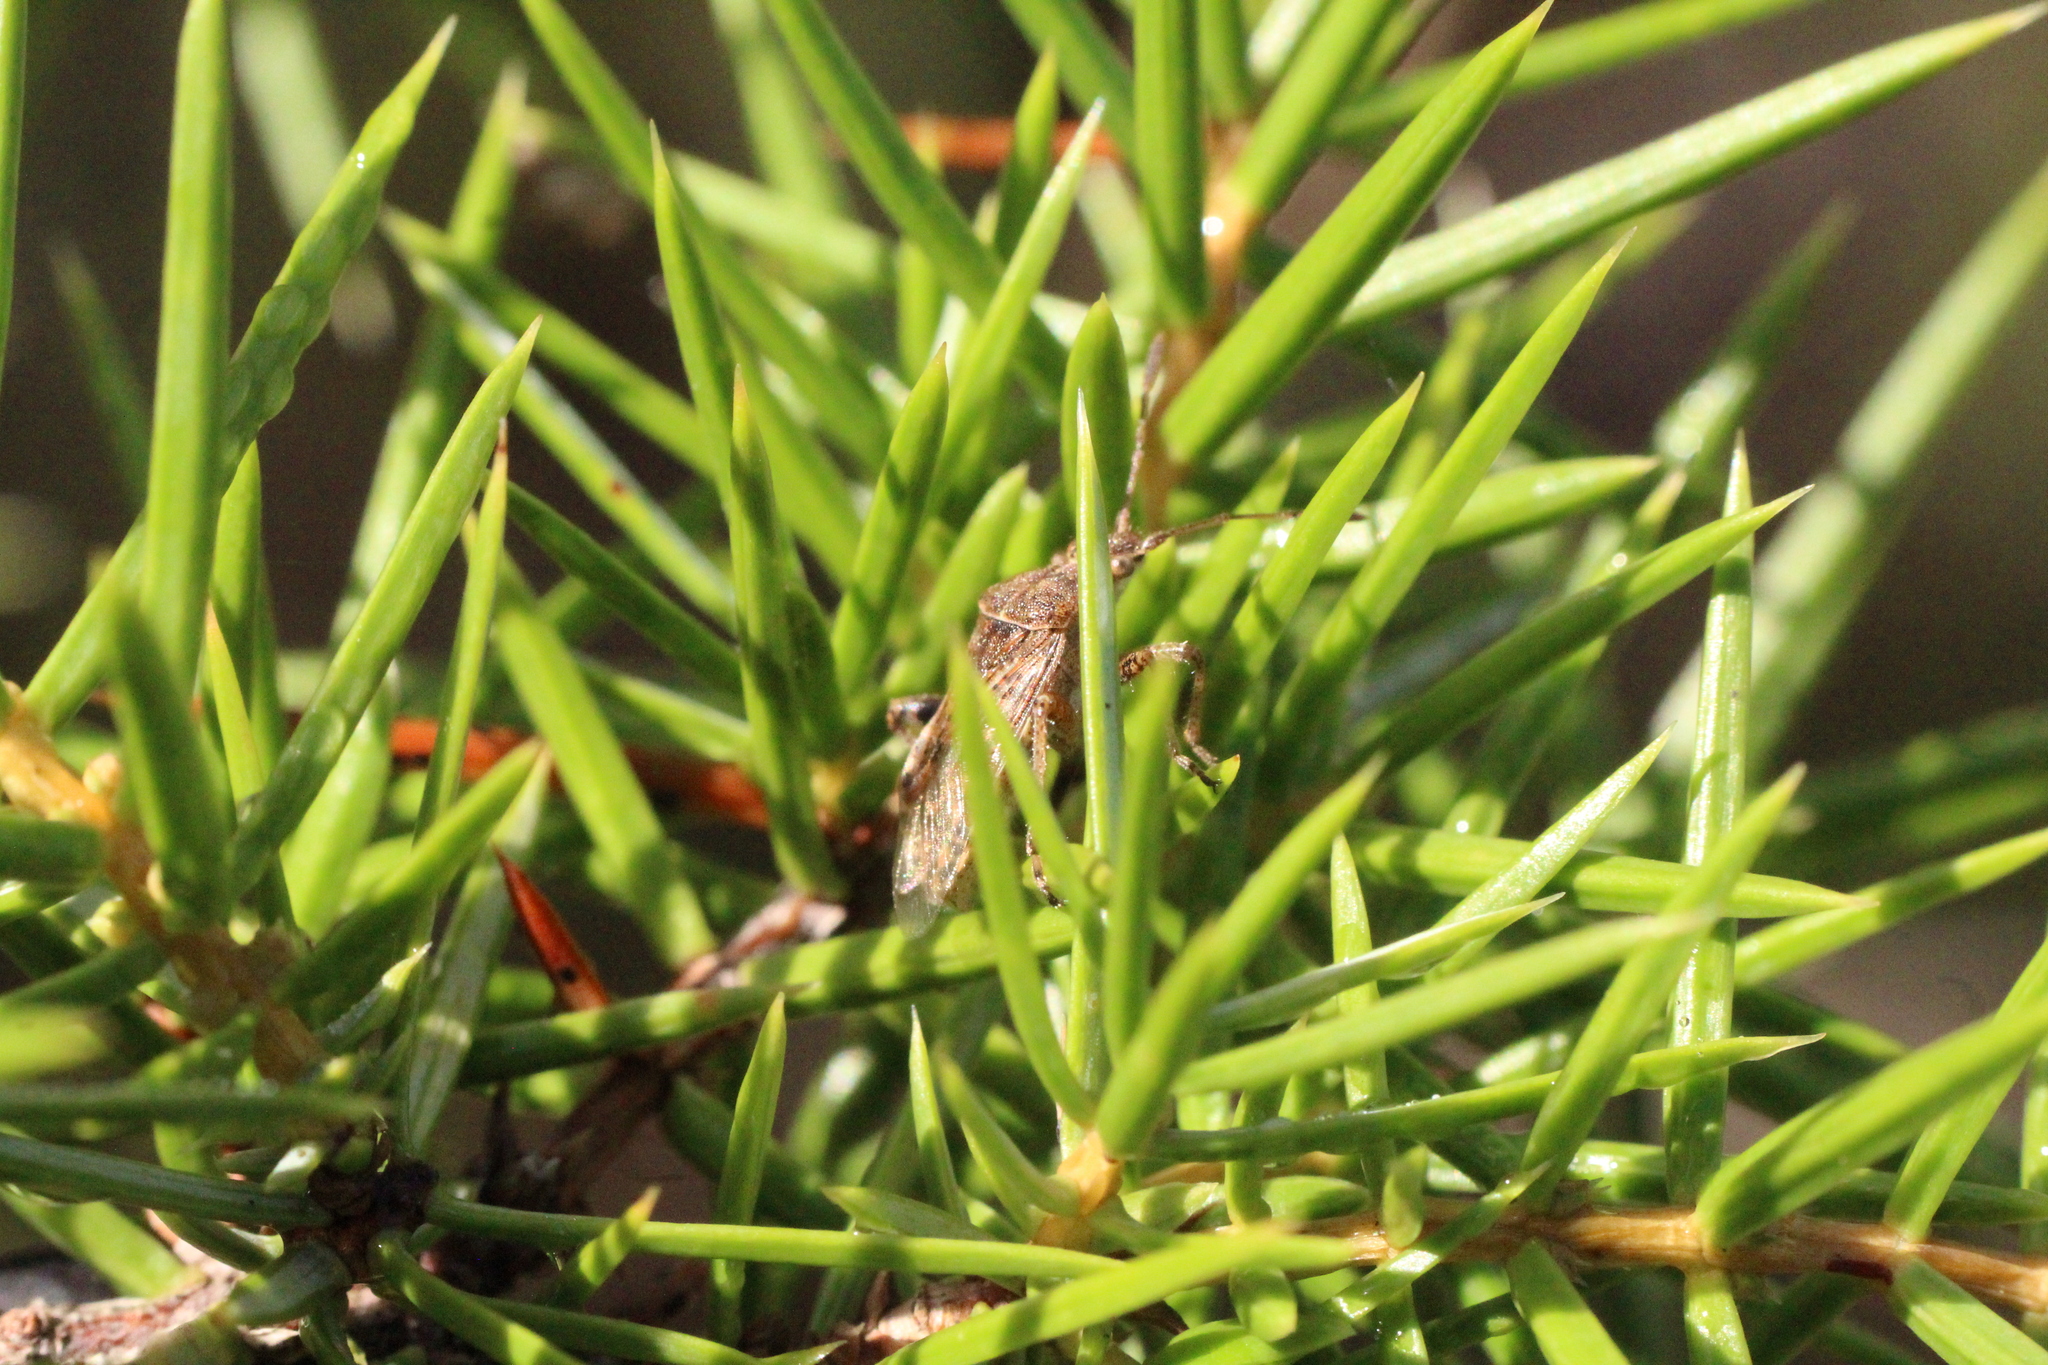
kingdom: Animalia
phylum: Arthropoda
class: Insecta
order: Hemiptera
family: Rhopalidae
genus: Stictopleurus
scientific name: Stictopleurus punctatonervosus
